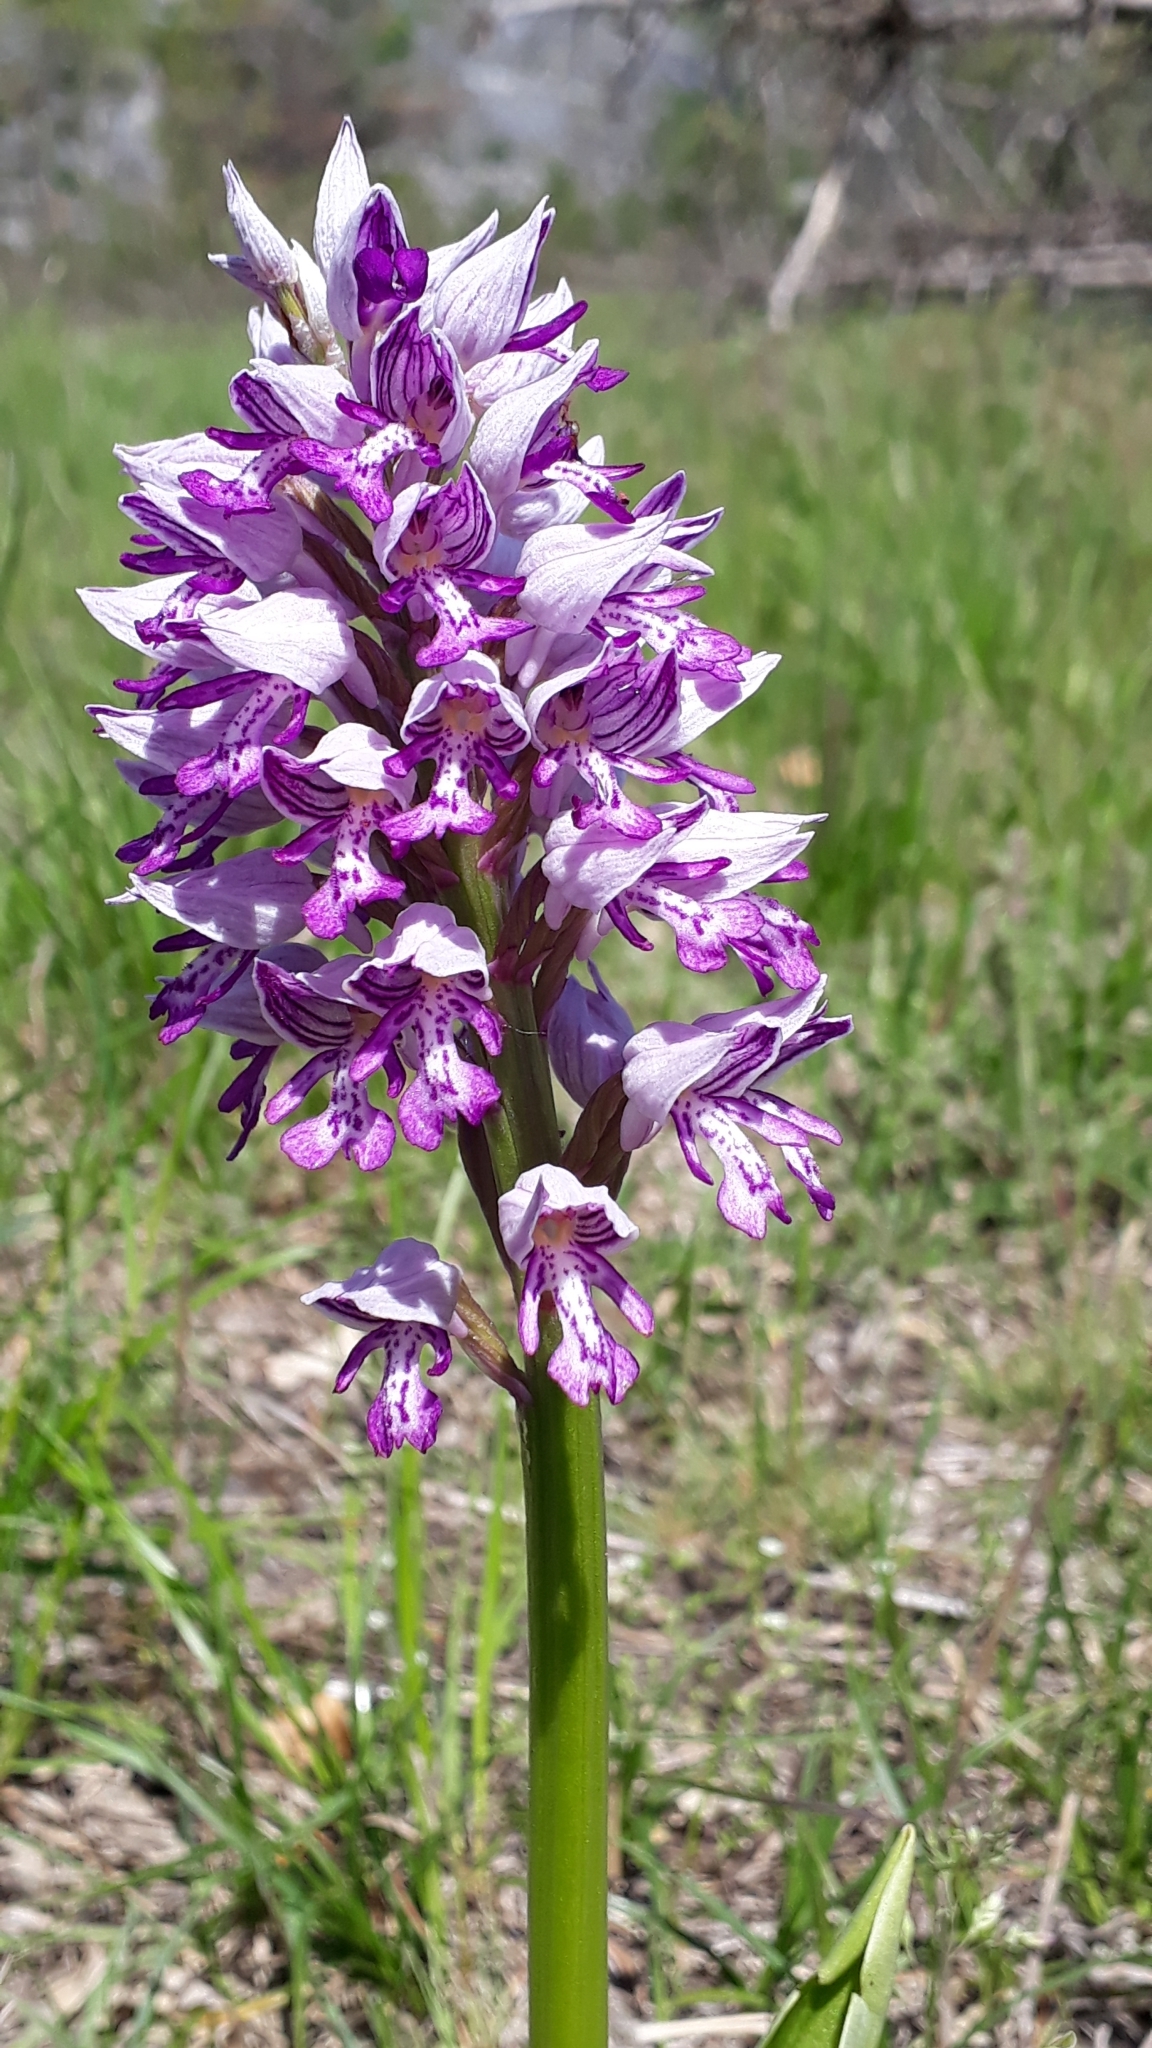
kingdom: Plantae
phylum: Tracheophyta
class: Liliopsida
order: Asparagales
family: Orchidaceae
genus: Orchis
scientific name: Orchis militaris
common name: Military orchid
